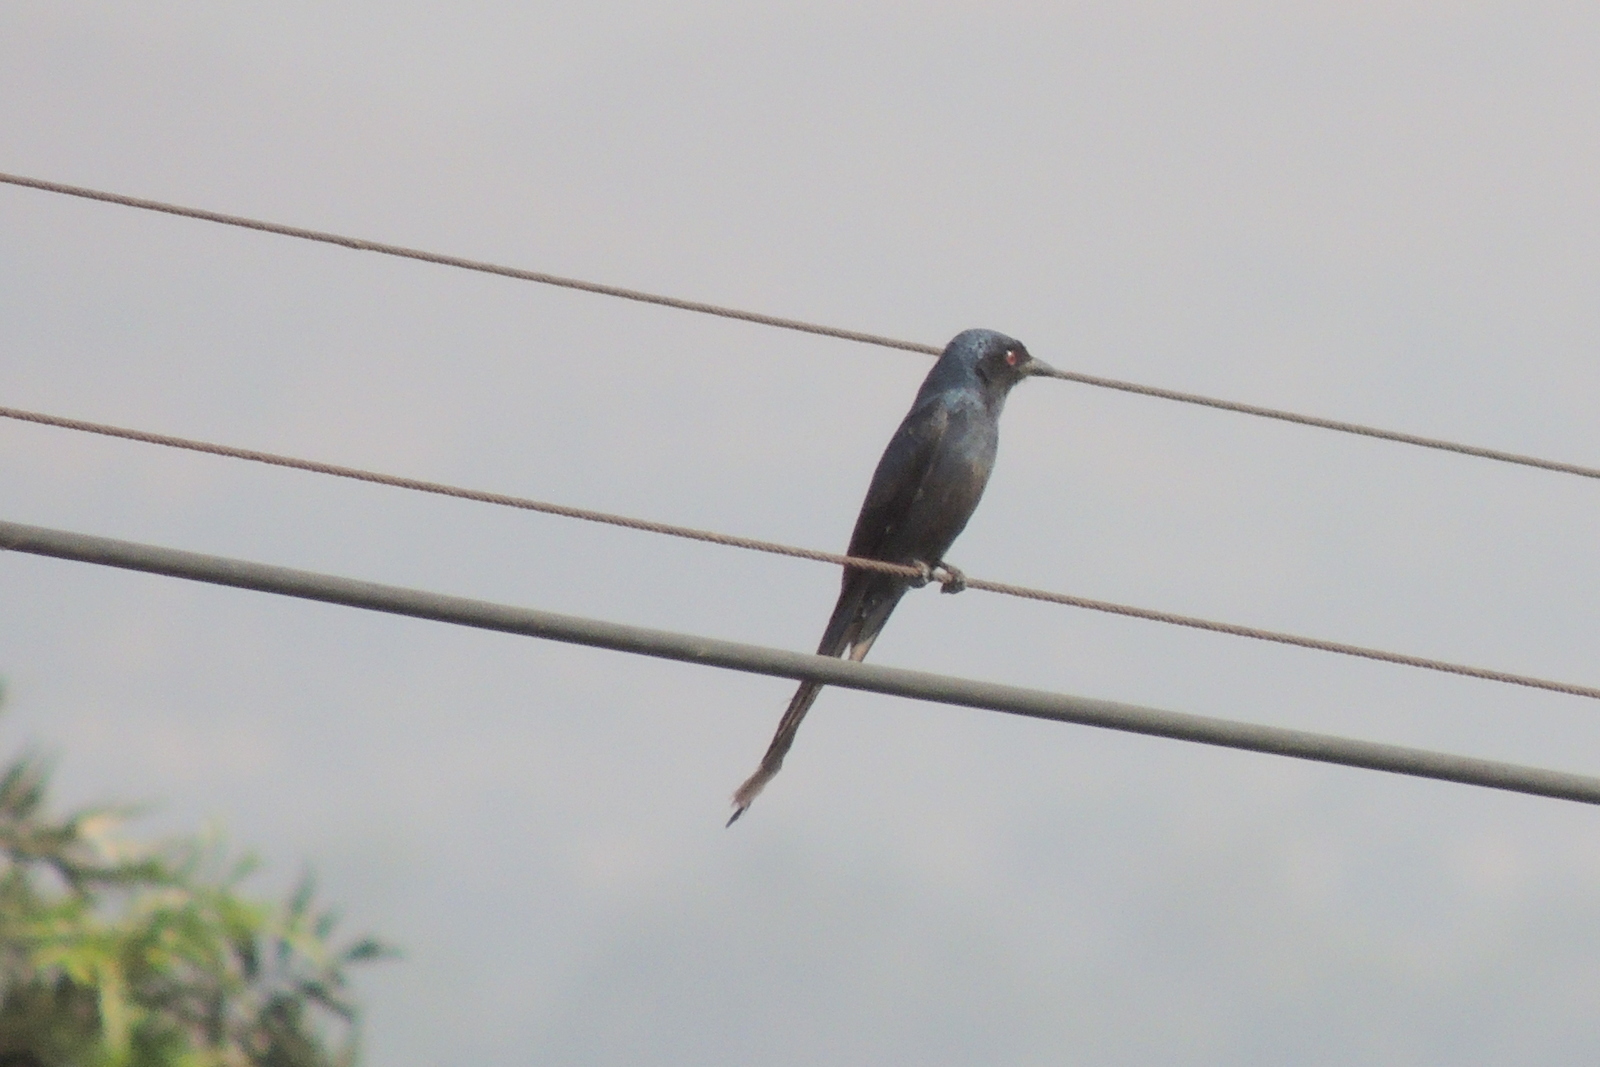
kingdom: Animalia
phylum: Chordata
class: Aves
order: Passeriformes
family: Dicruridae
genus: Dicrurus
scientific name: Dicrurus leucophaeus
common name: Ashy drongo
